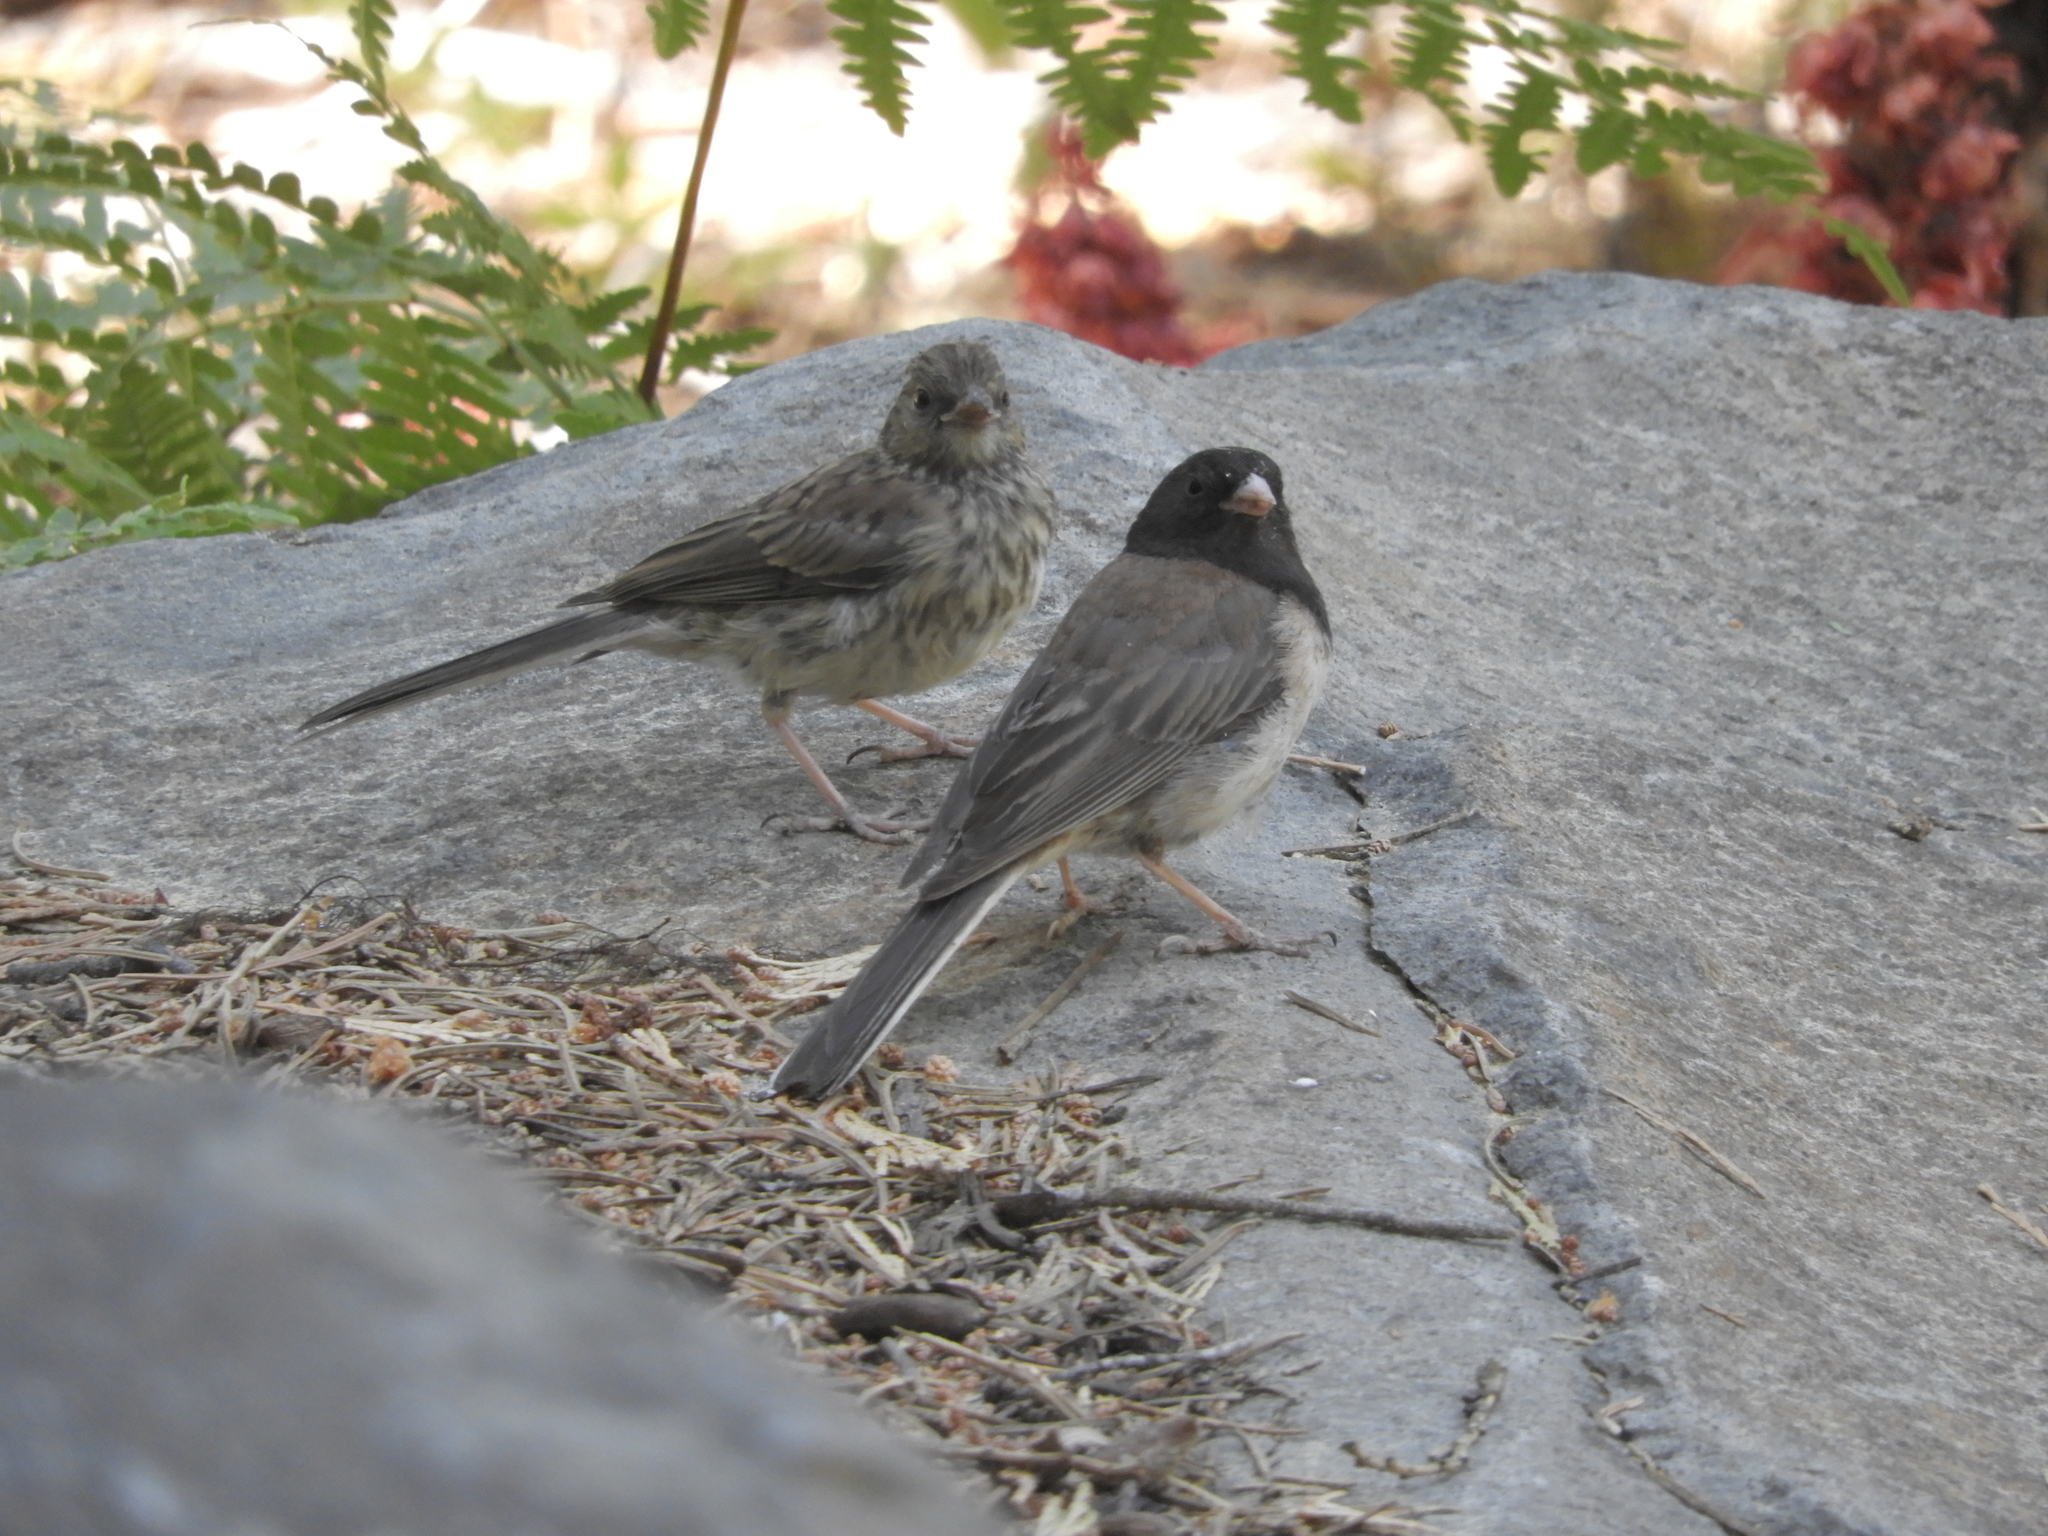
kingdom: Animalia
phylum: Chordata
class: Aves
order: Passeriformes
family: Passerellidae
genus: Junco
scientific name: Junco hyemalis
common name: Dark-eyed junco
